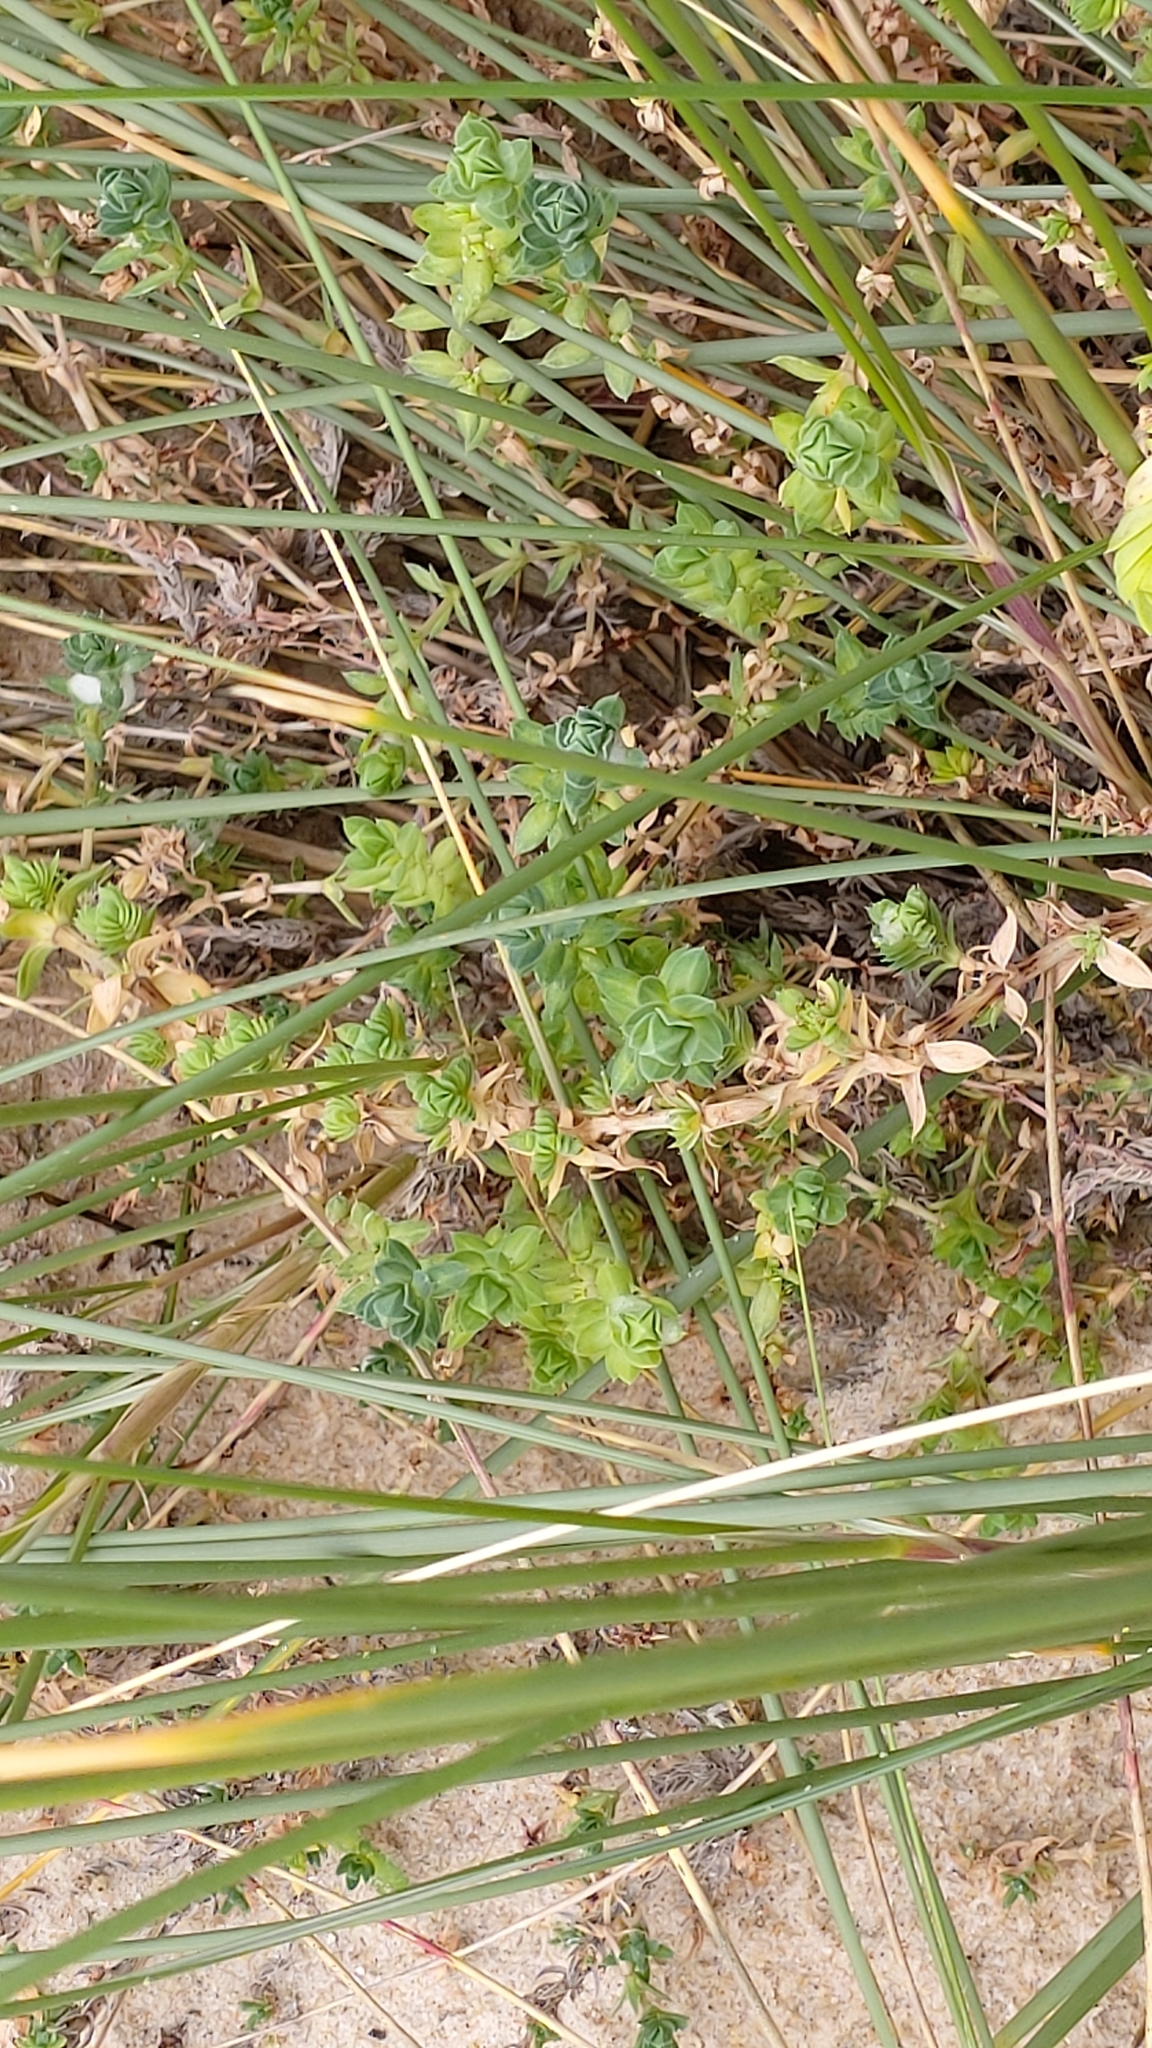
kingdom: Plantae
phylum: Tracheophyta
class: Magnoliopsida
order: Gentianales
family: Rubiaceae
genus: Crucianella
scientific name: Crucianella maritima
